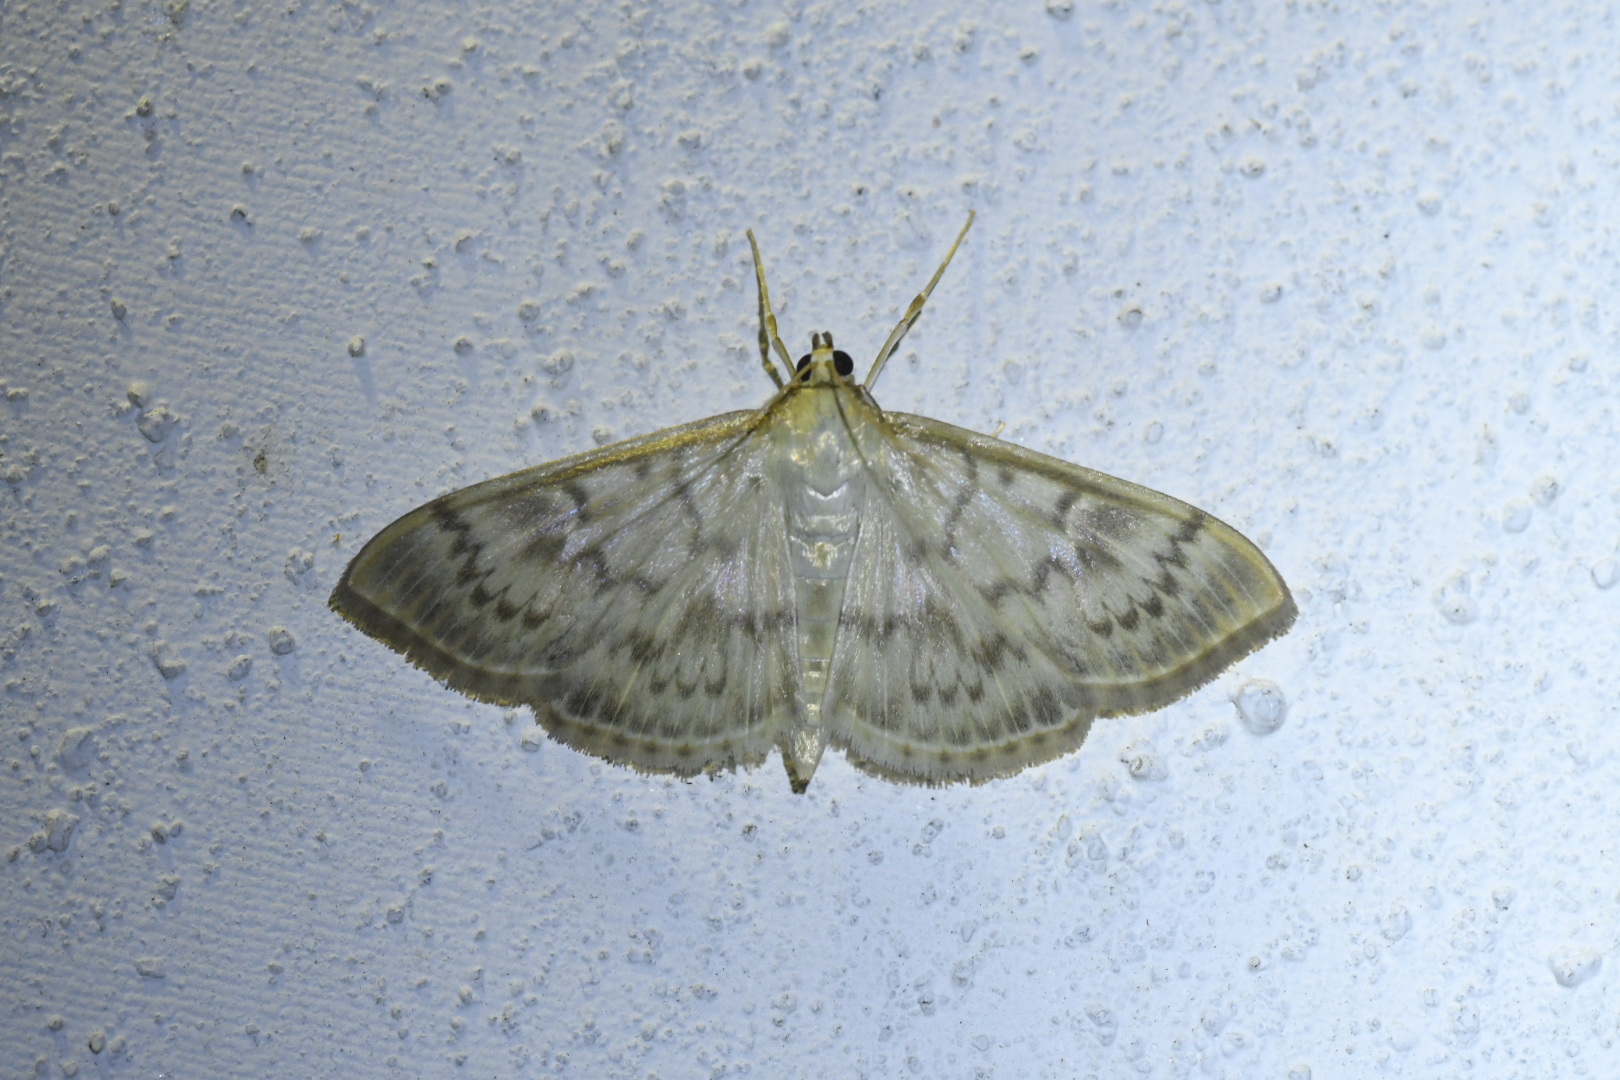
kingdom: Animalia
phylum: Arthropoda
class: Insecta
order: Lepidoptera
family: Crambidae
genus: Patania
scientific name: Patania ruralis
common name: Mother of pearl
